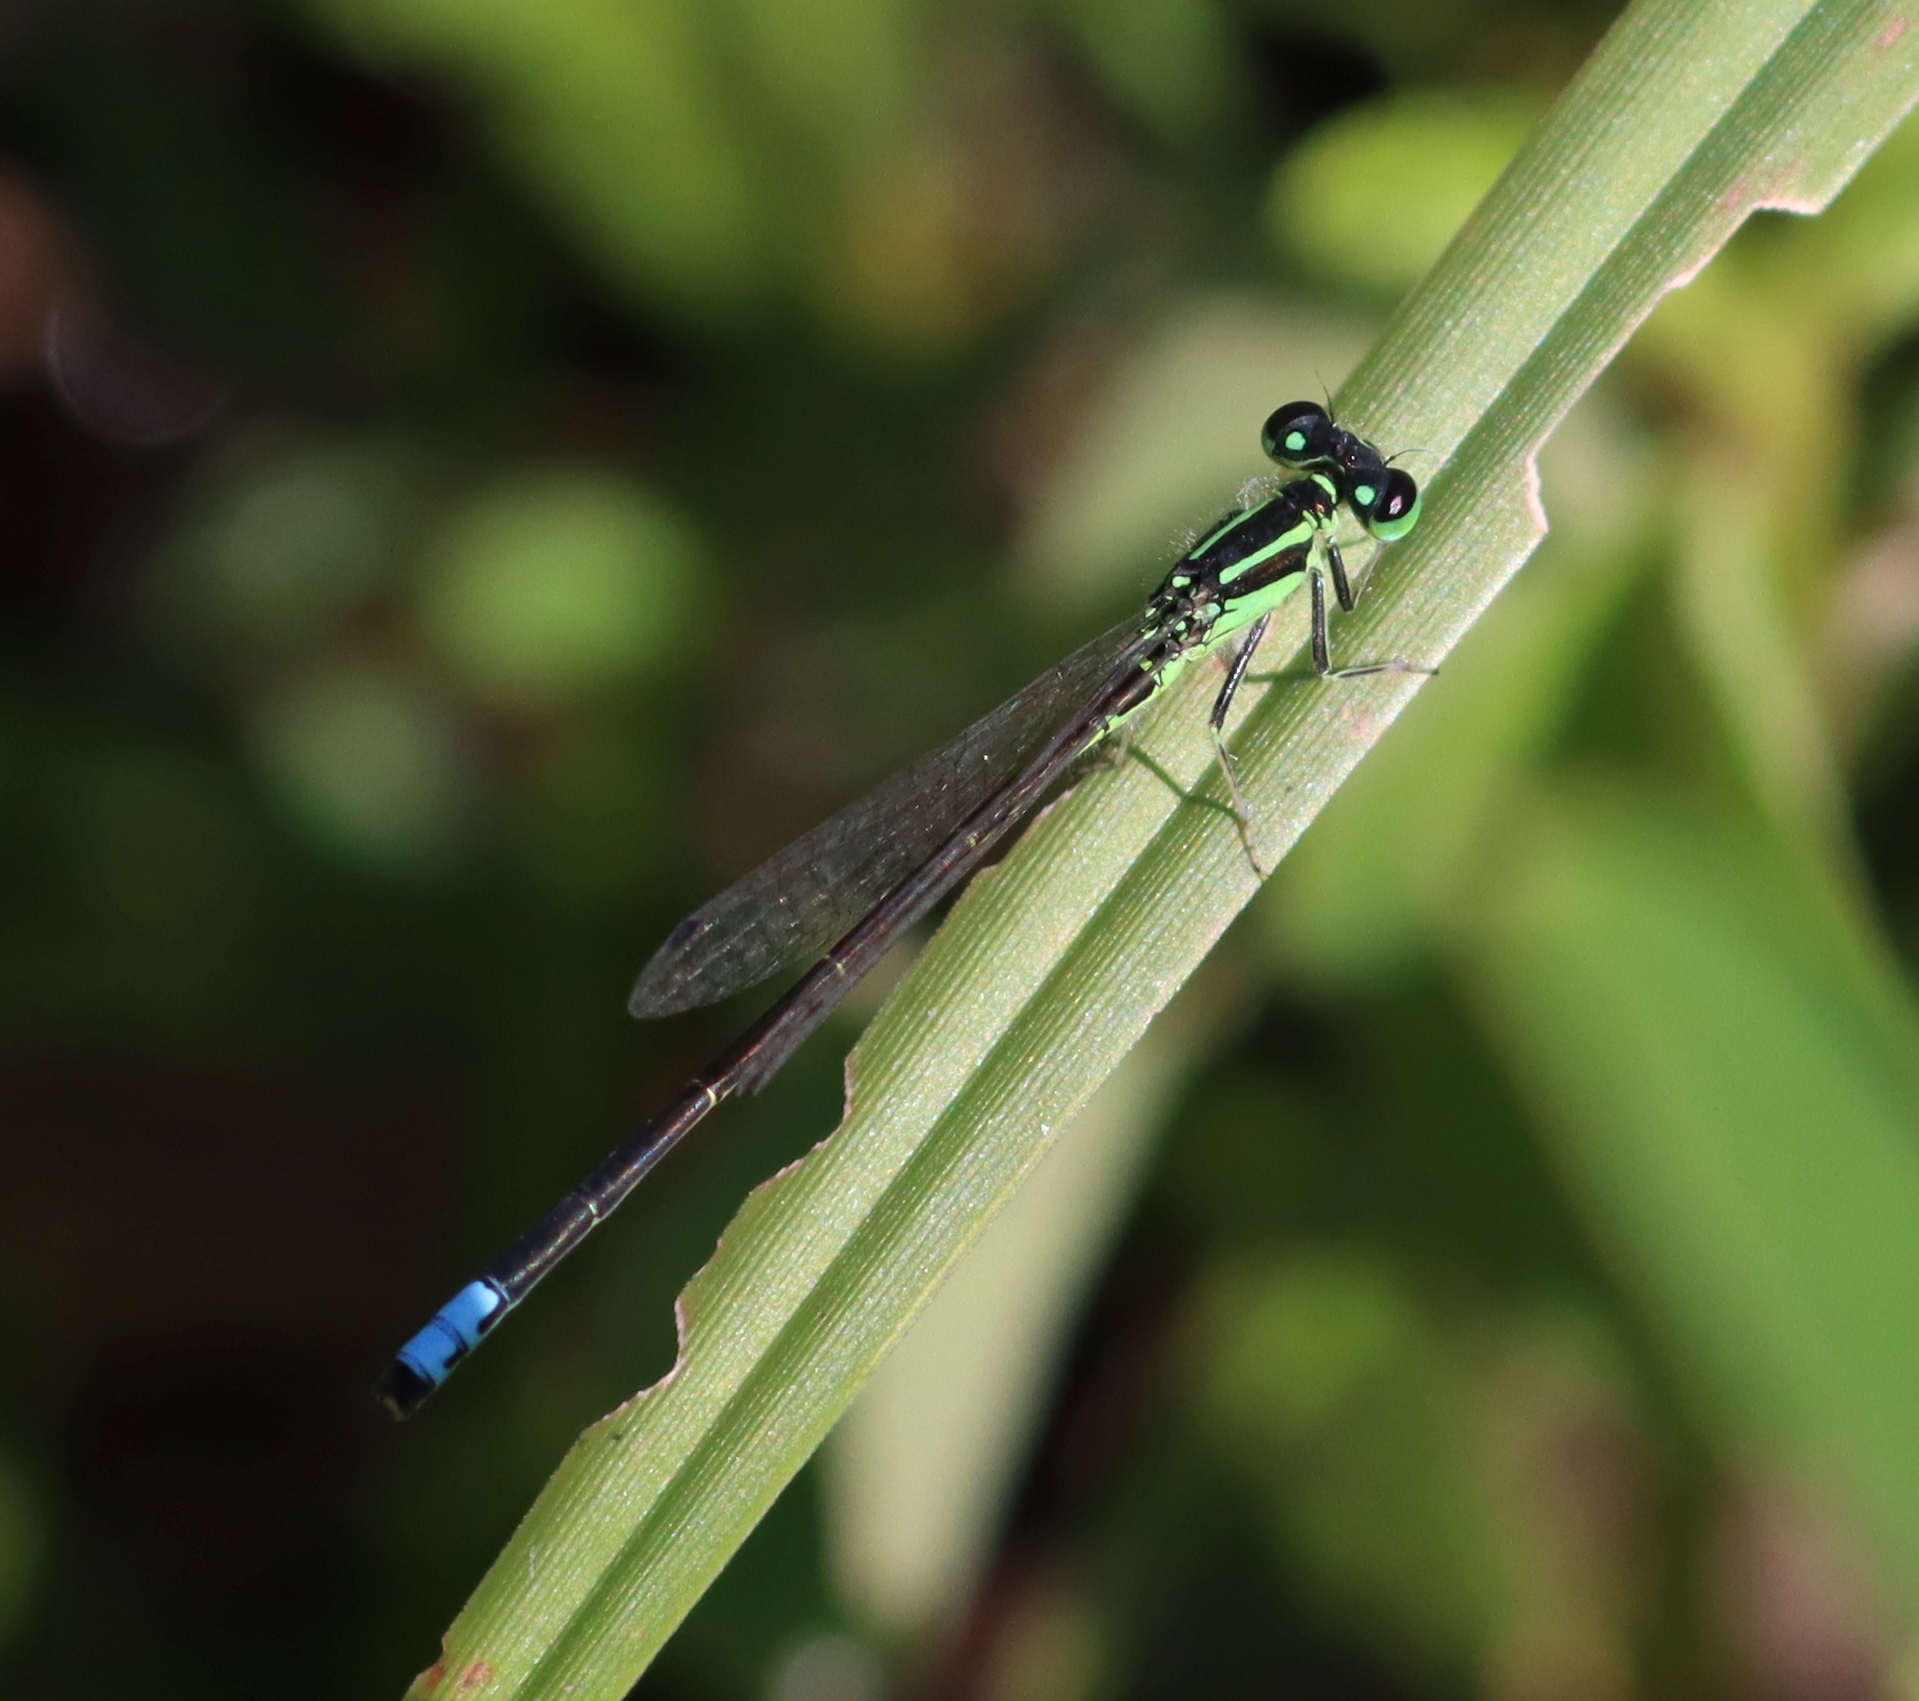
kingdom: Animalia
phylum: Arthropoda
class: Insecta
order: Odonata
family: Coenagrionidae
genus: Ischnura
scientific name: Ischnura verticalis
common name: Eastern forktail
